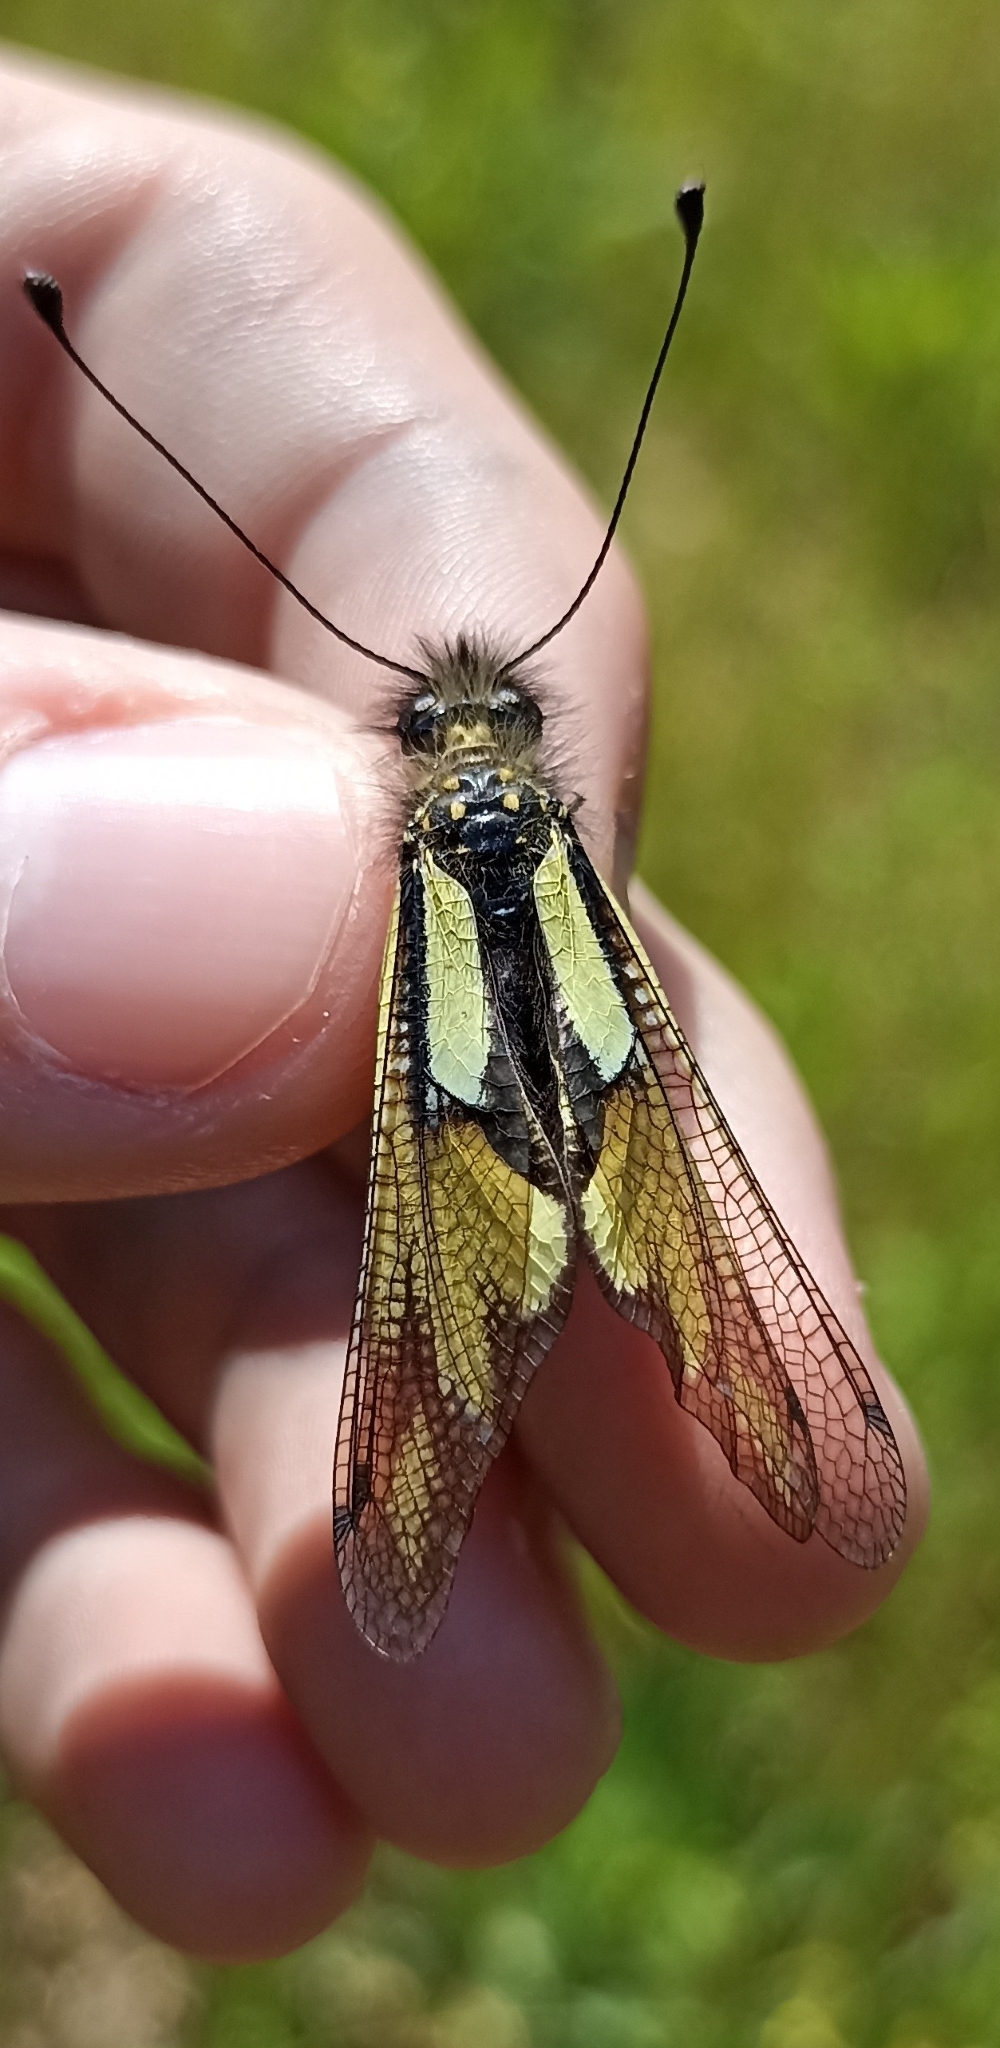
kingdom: Animalia
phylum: Arthropoda
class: Insecta
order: Neuroptera
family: Ascalaphidae
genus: Libelloides
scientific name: Libelloides coccajus
